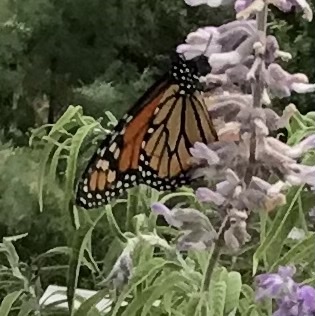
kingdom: Animalia
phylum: Arthropoda
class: Insecta
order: Lepidoptera
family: Nymphalidae
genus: Danaus
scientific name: Danaus plexippus
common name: Monarch
